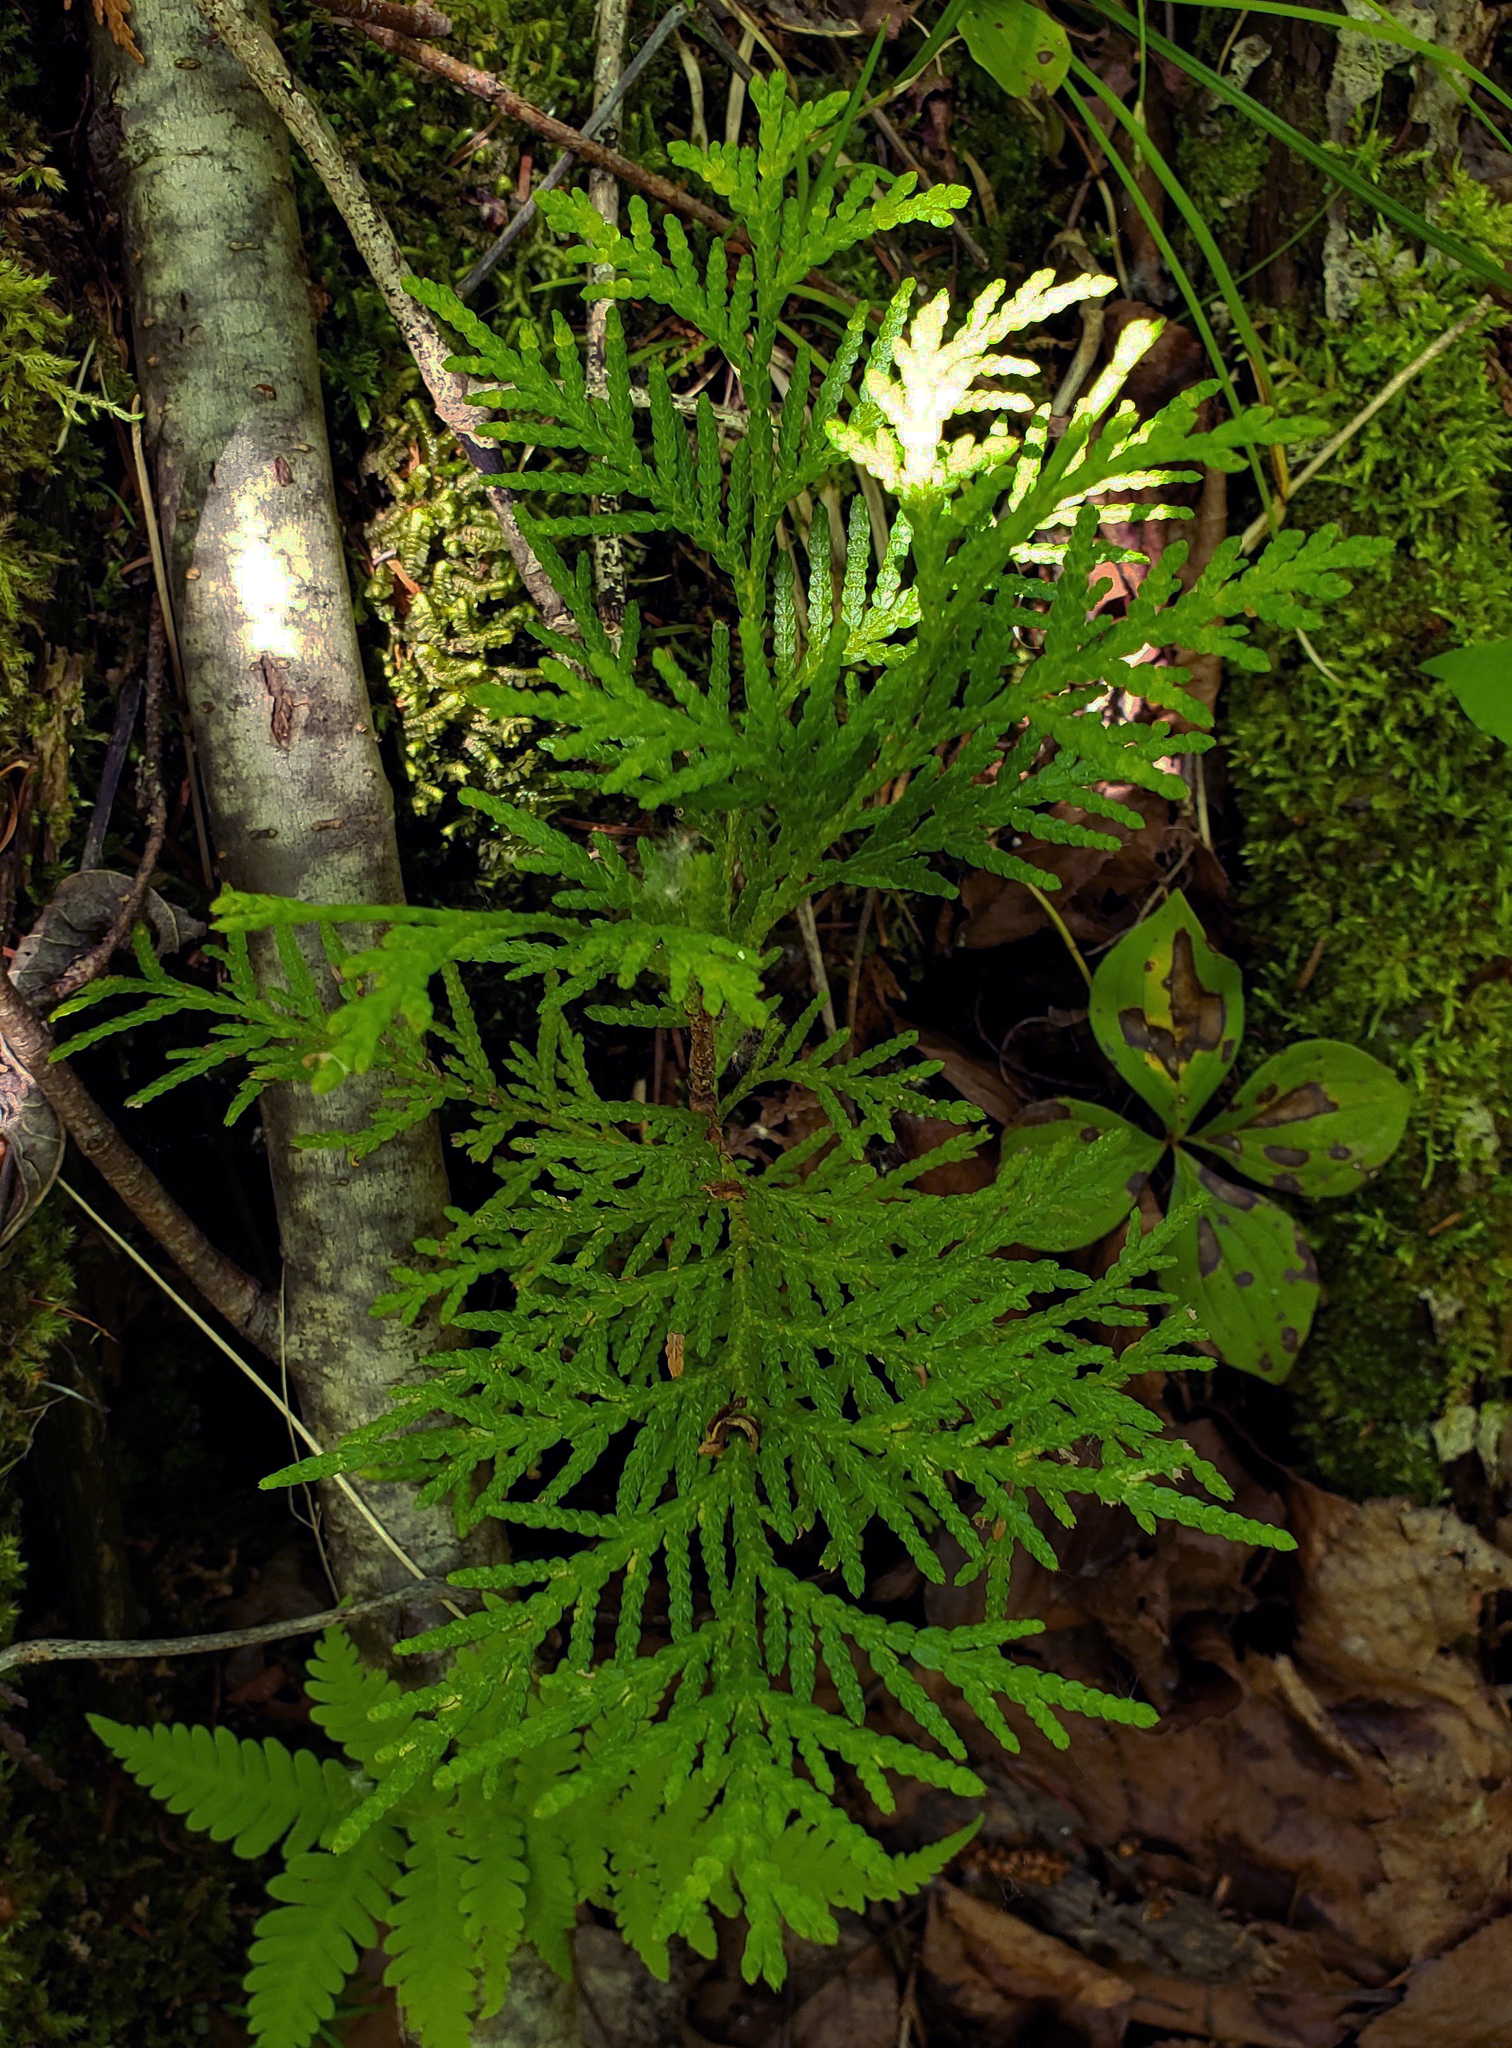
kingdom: Plantae
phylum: Tracheophyta
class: Pinopsida
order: Pinales
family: Cupressaceae
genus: Thuja
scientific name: Thuja occidentalis
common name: Northern white-cedar
